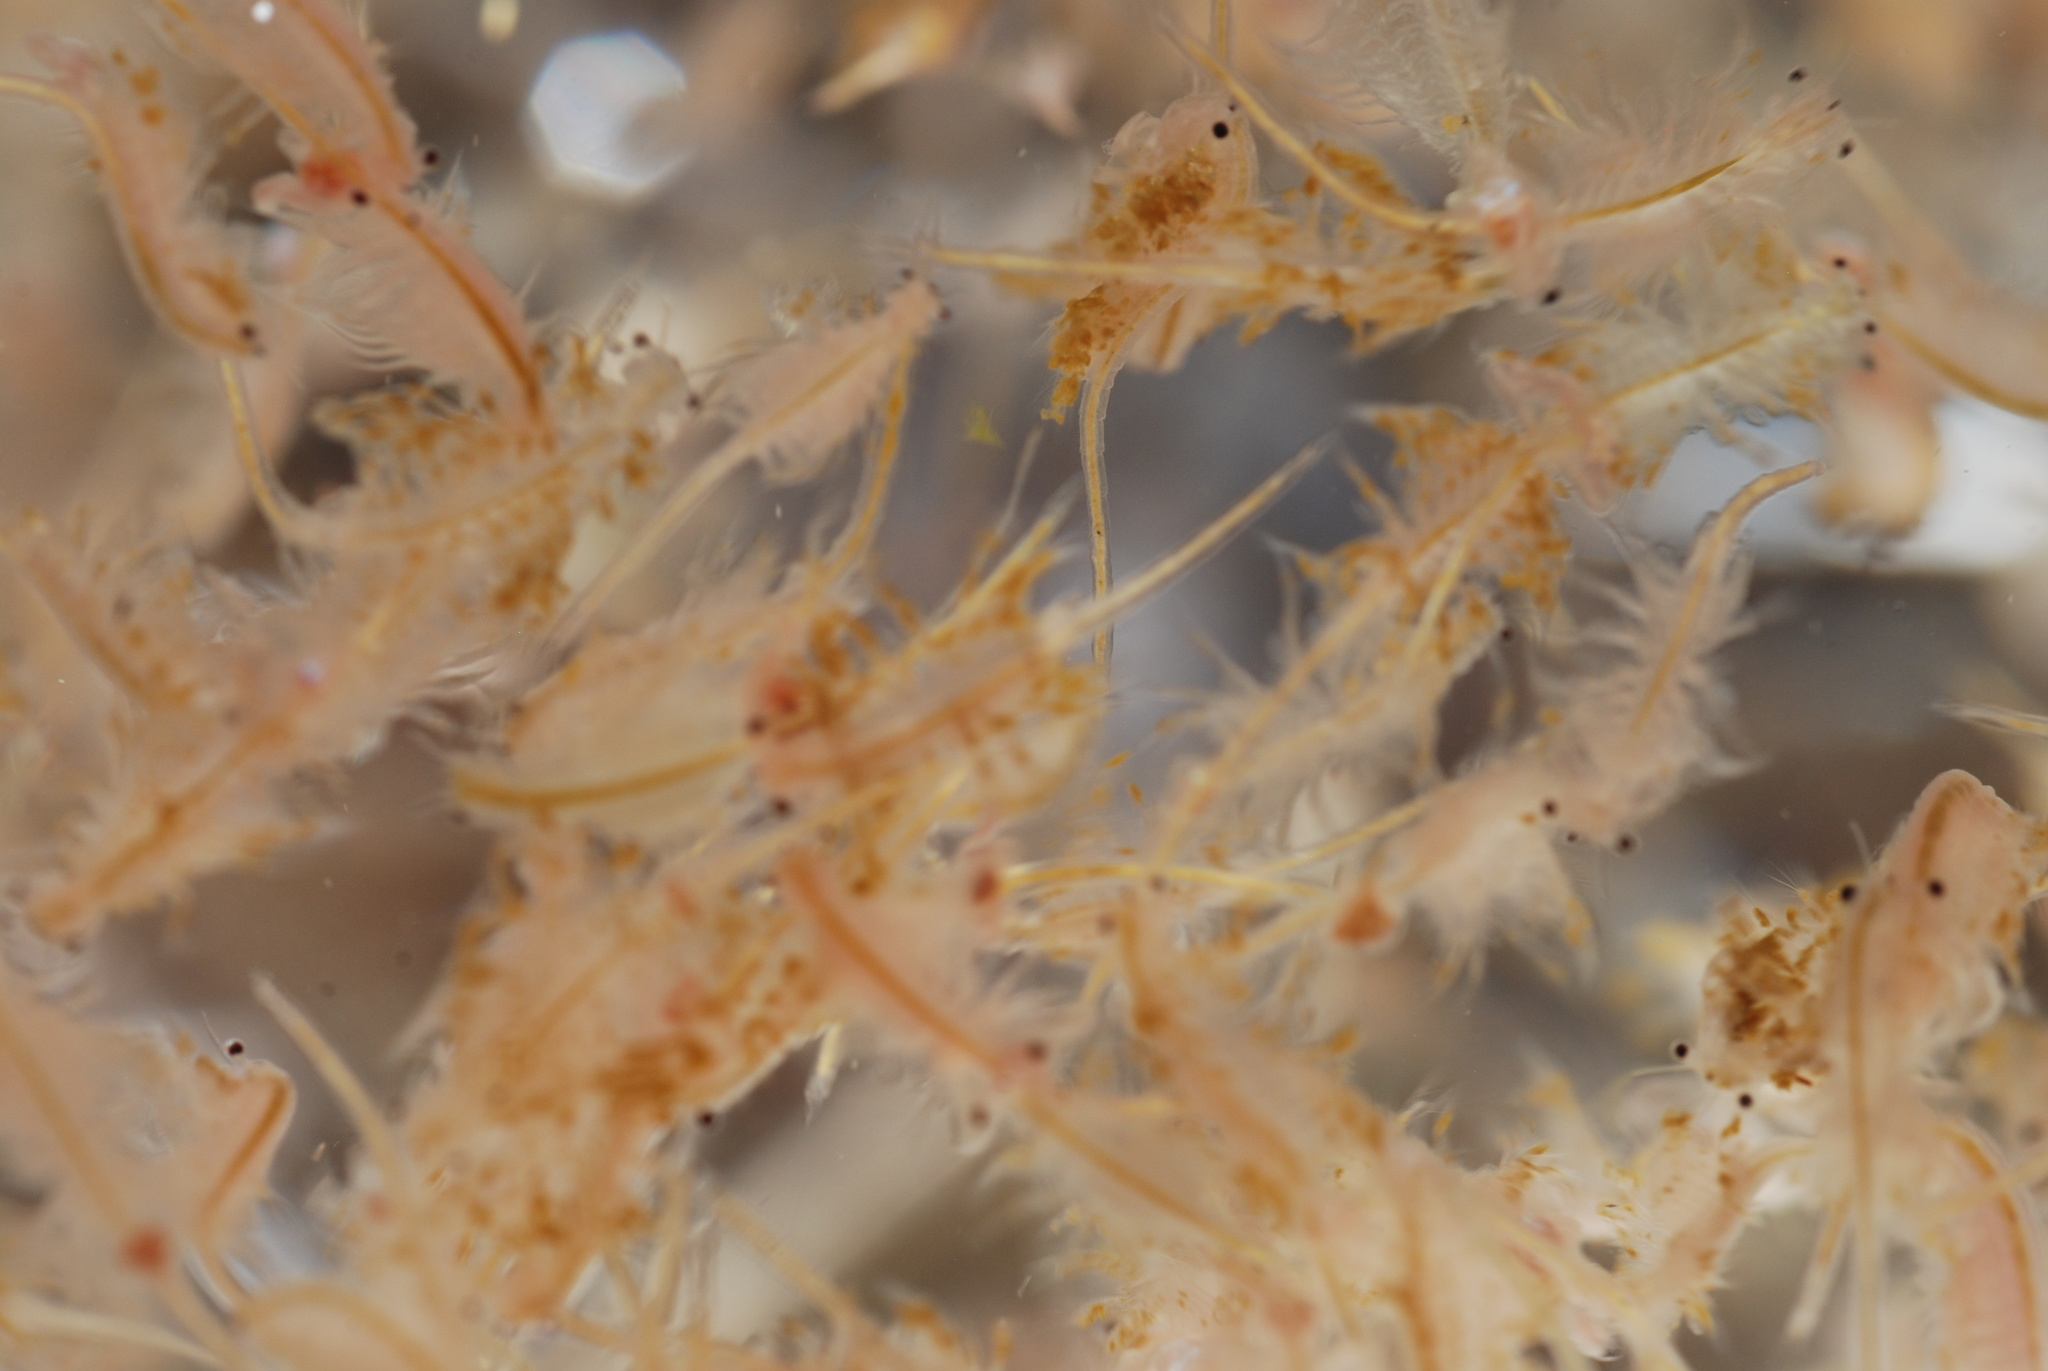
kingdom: Animalia
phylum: Arthropoda
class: Branchiopoda
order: Anostraca
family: Artemiidae
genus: Artemia
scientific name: Artemia monica
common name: Mono lake brine shrimp
